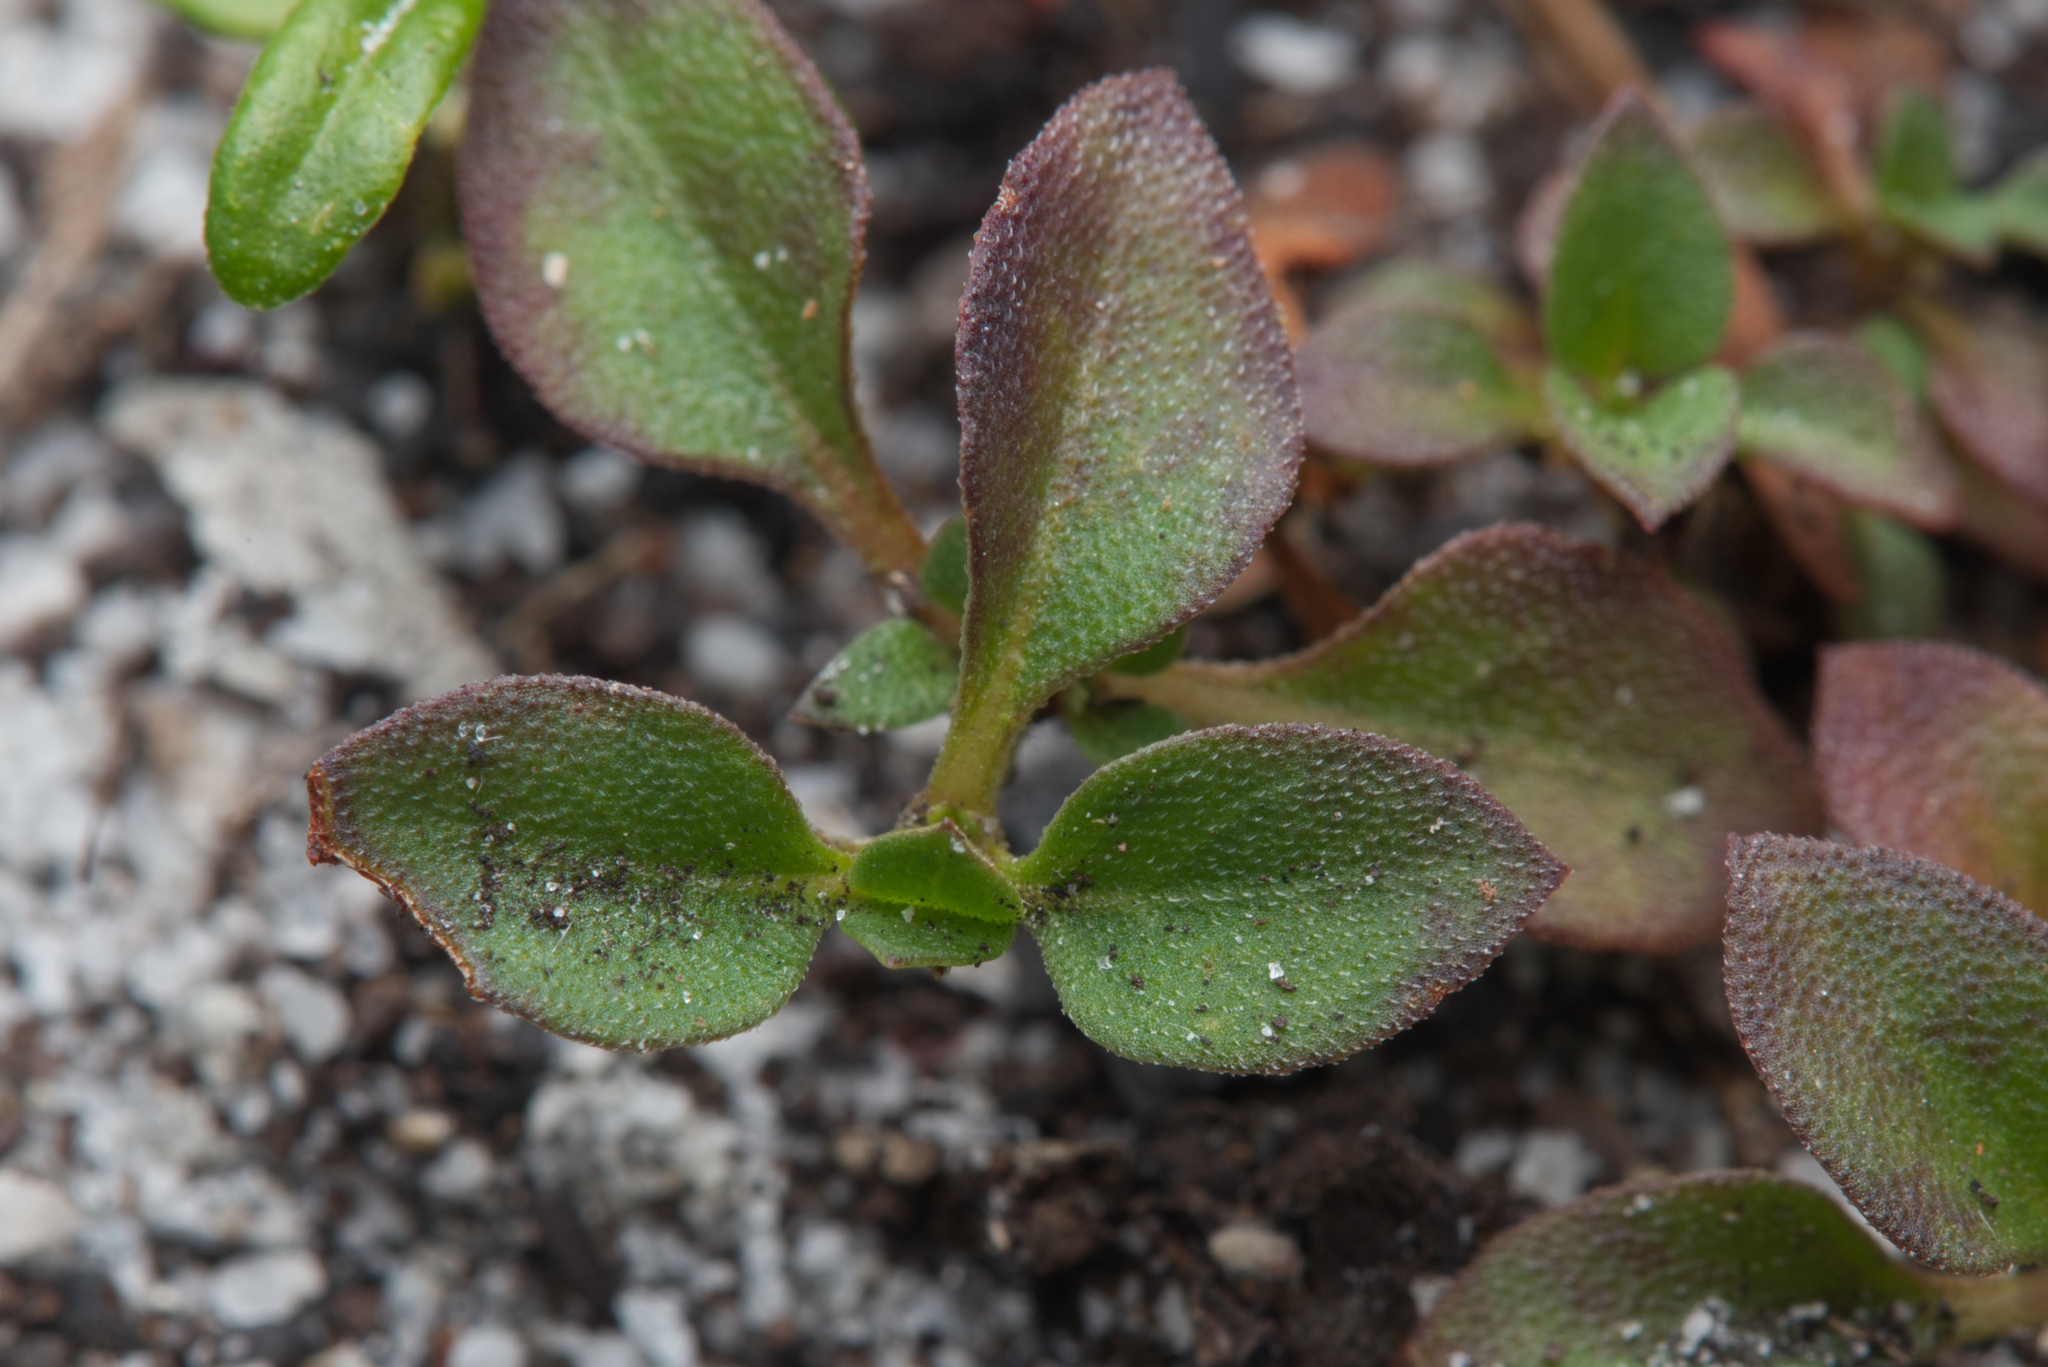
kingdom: Plantae
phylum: Tracheophyta
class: Magnoliopsida
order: Gentianales
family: Rubiaceae
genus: Pomax
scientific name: Pomax umbellata
